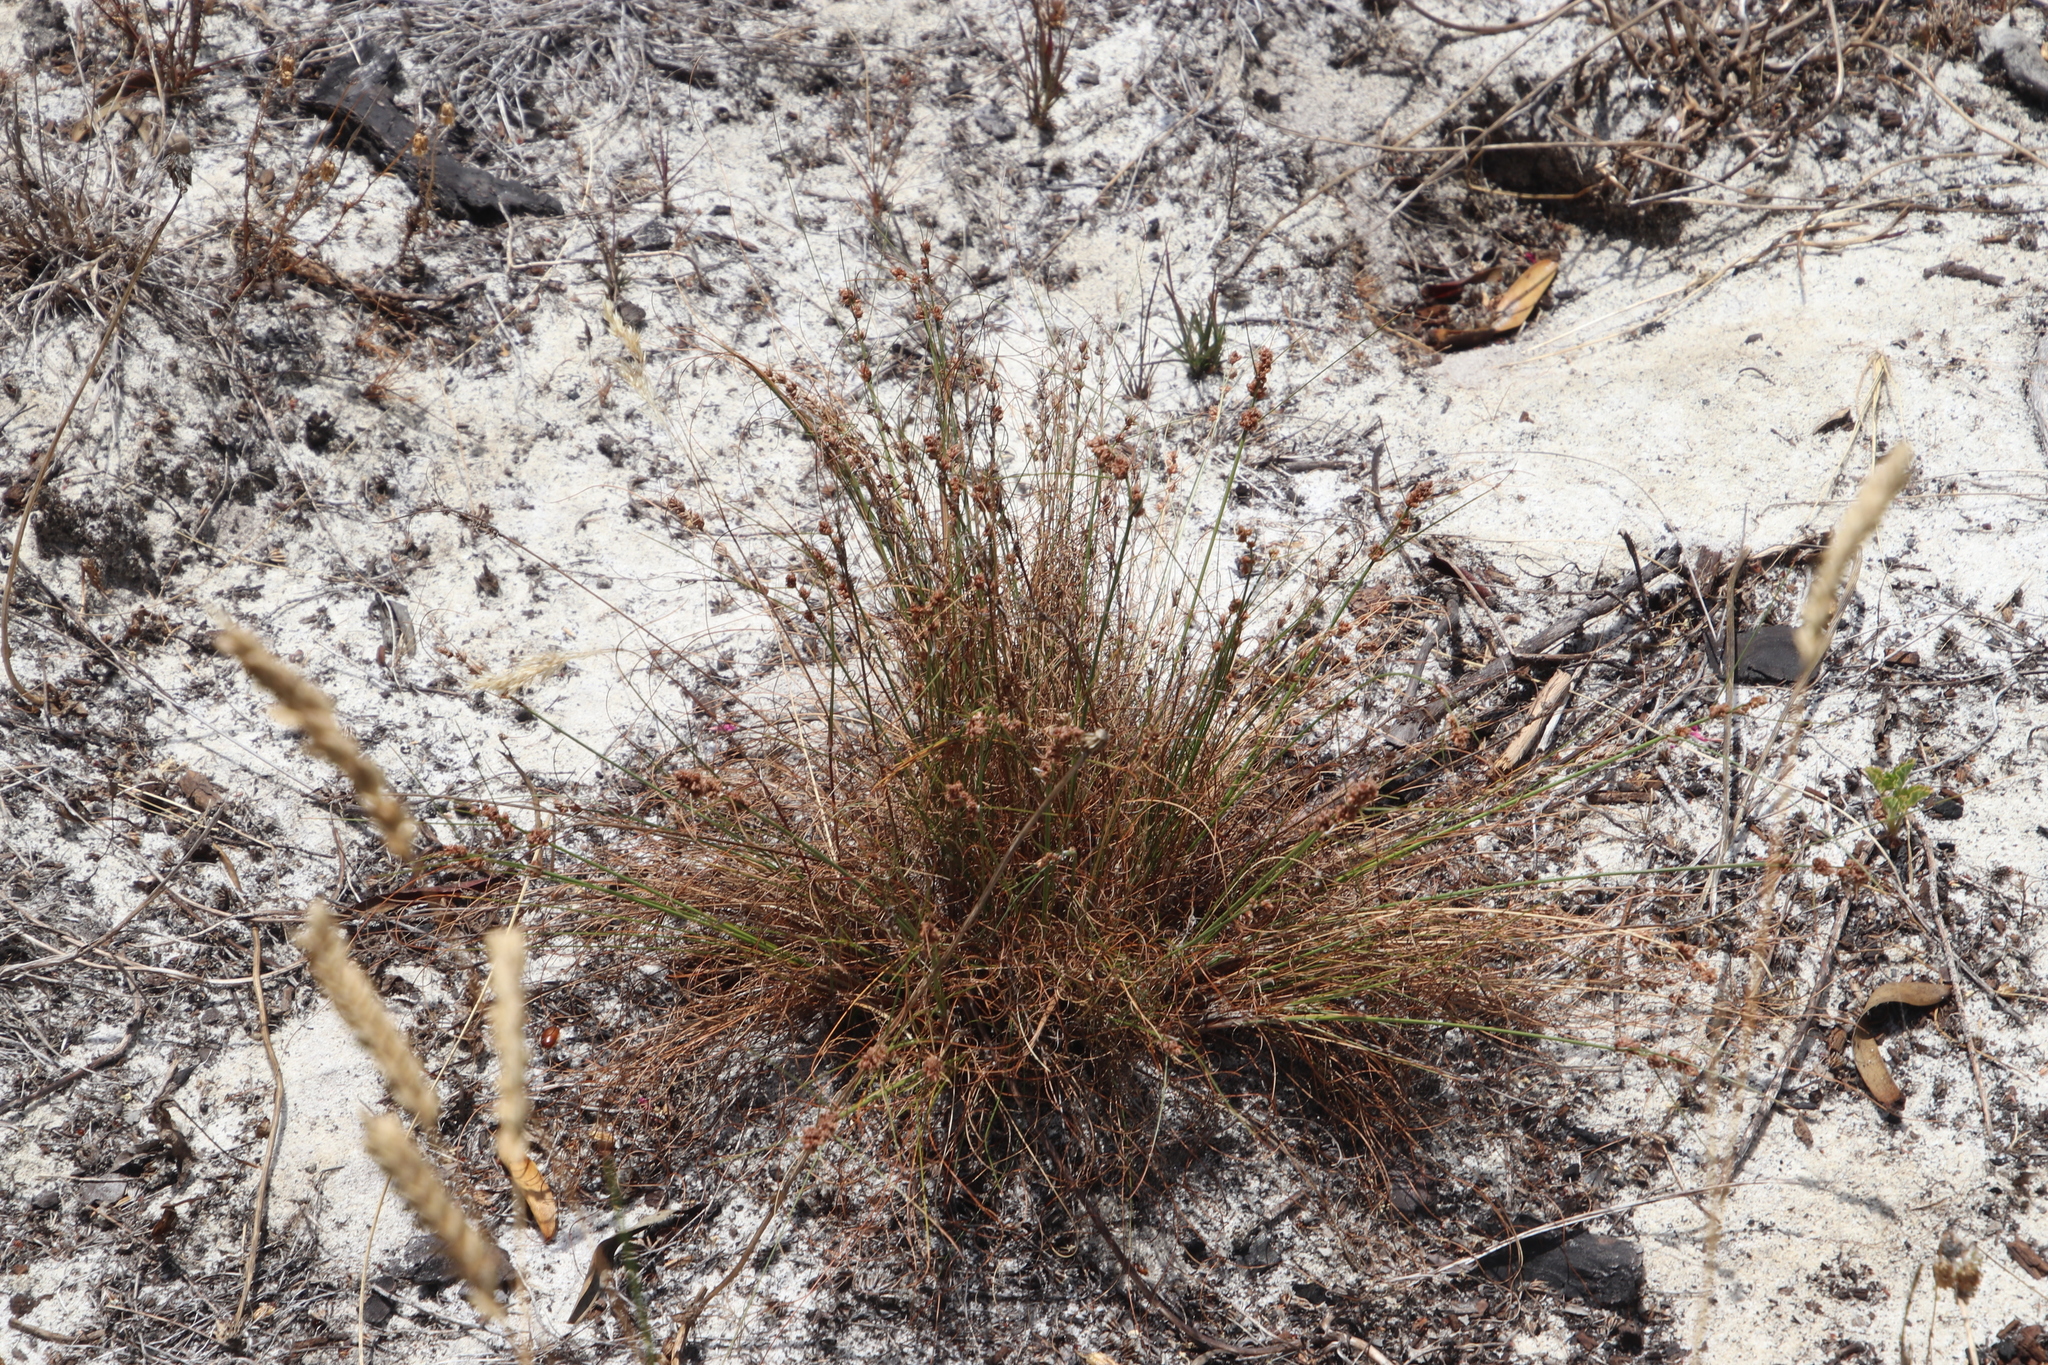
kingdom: Plantae
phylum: Tracheophyta
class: Liliopsida
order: Poales
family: Cyperaceae
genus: Ficinia
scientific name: Ficinia bulbosa
